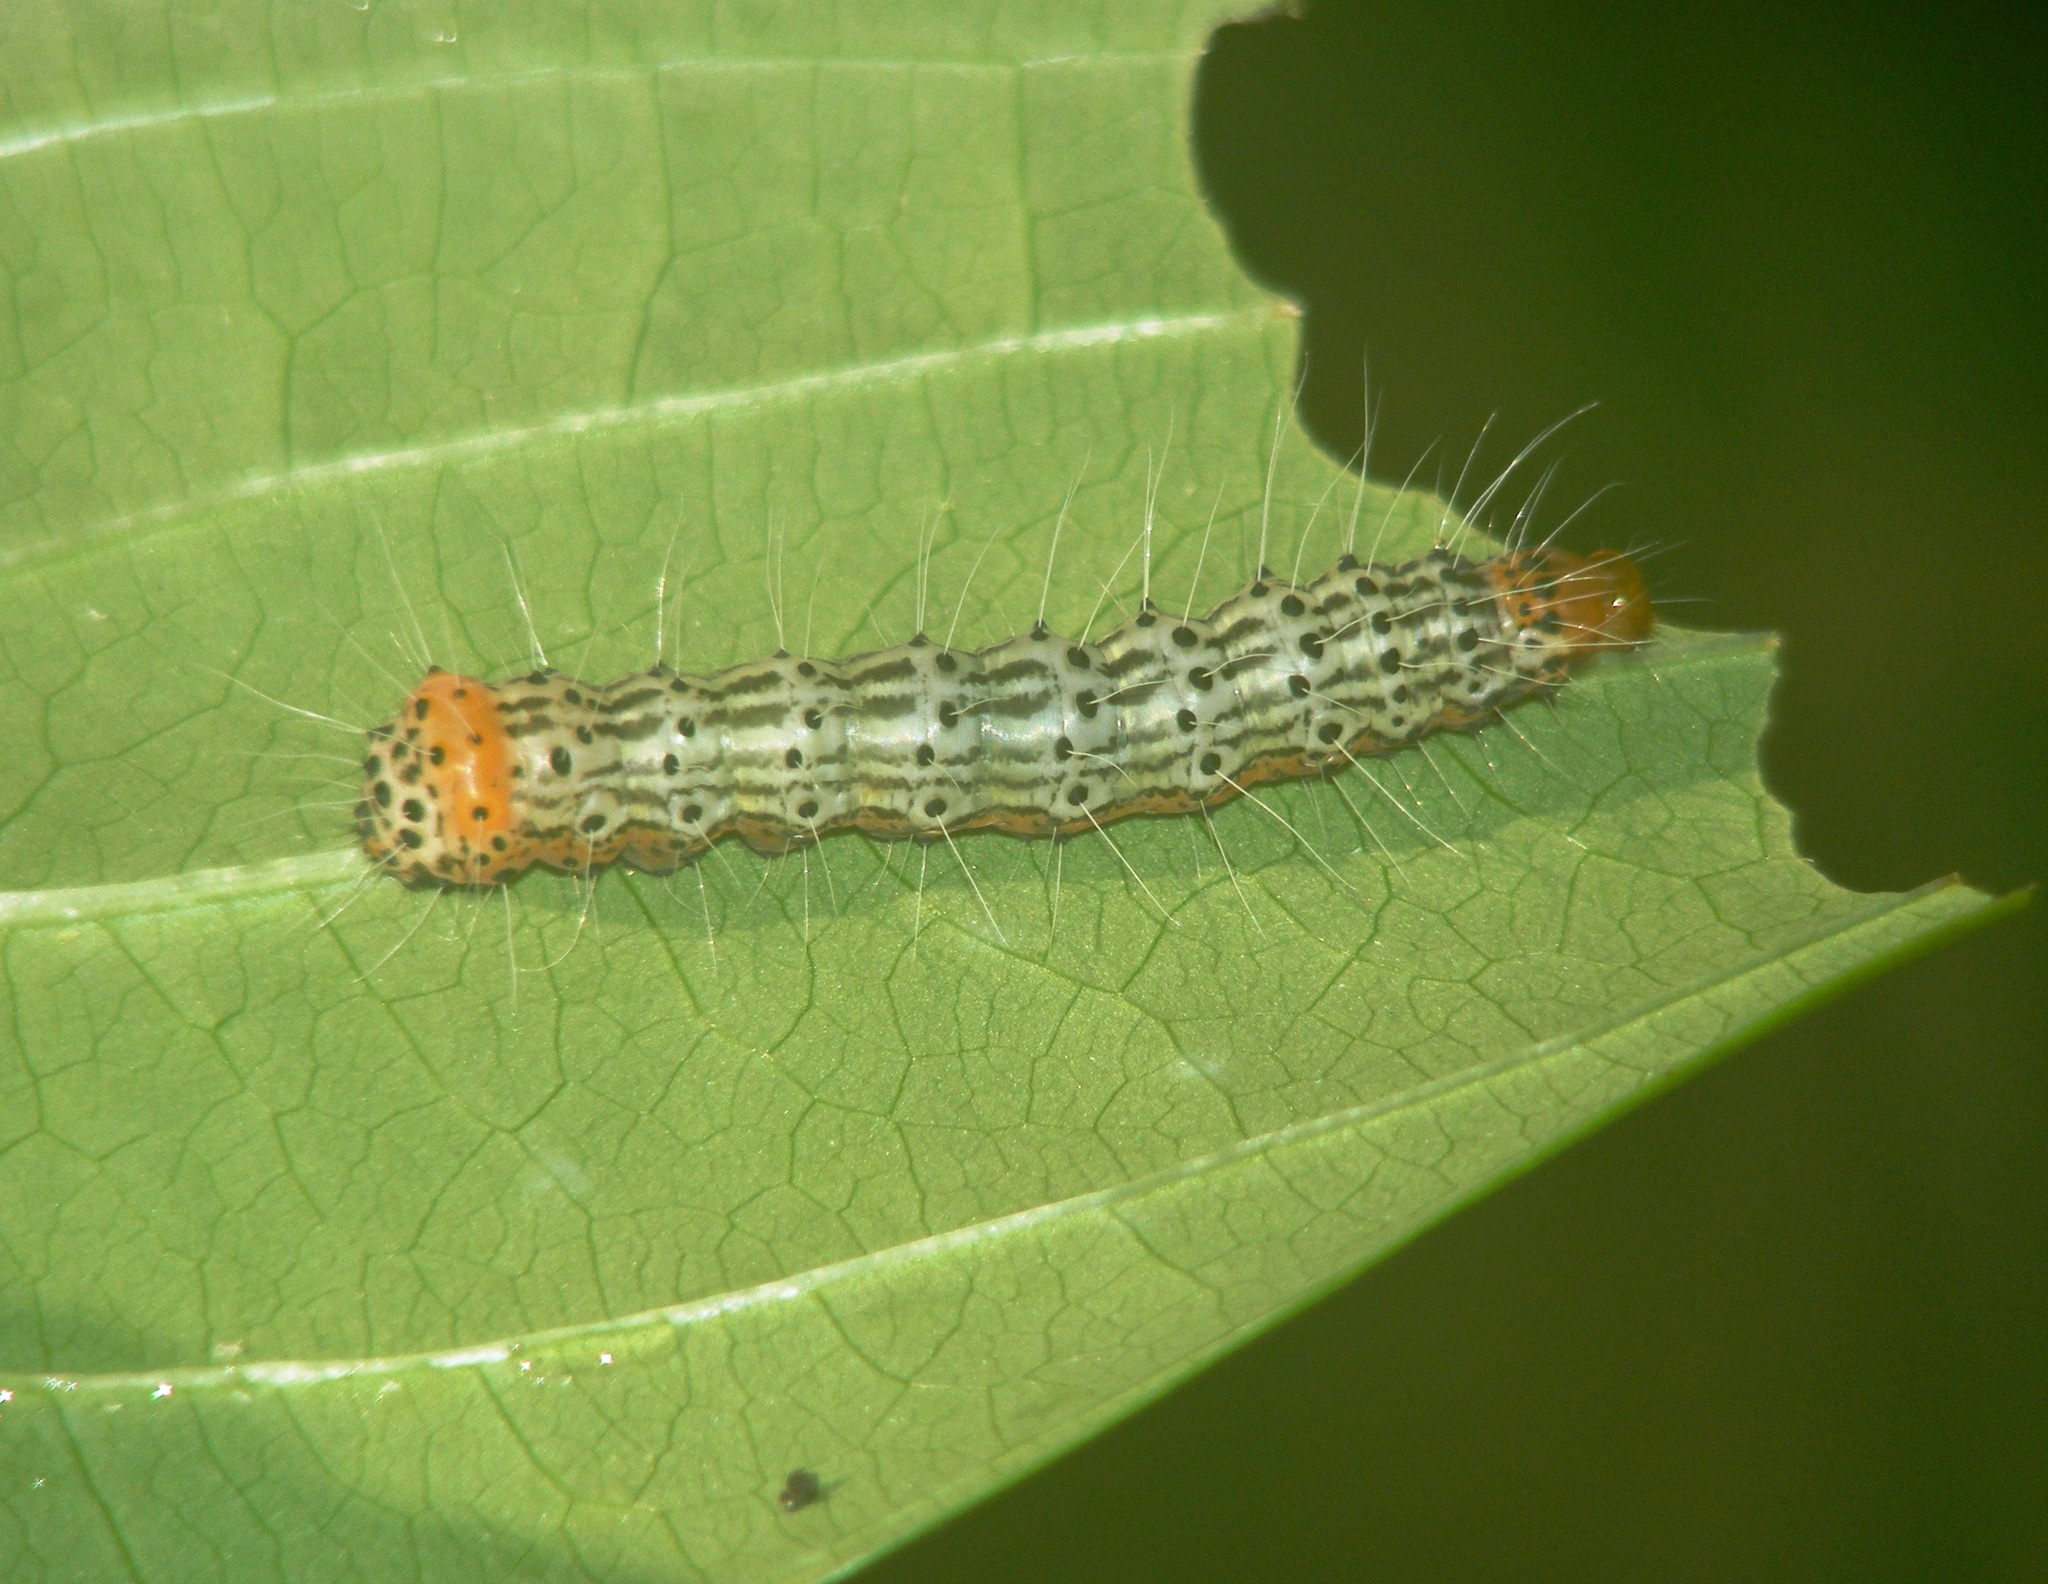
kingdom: Animalia
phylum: Arthropoda
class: Insecta
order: Lepidoptera
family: Noctuidae
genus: Episteme
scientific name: Episteme adulatrix
